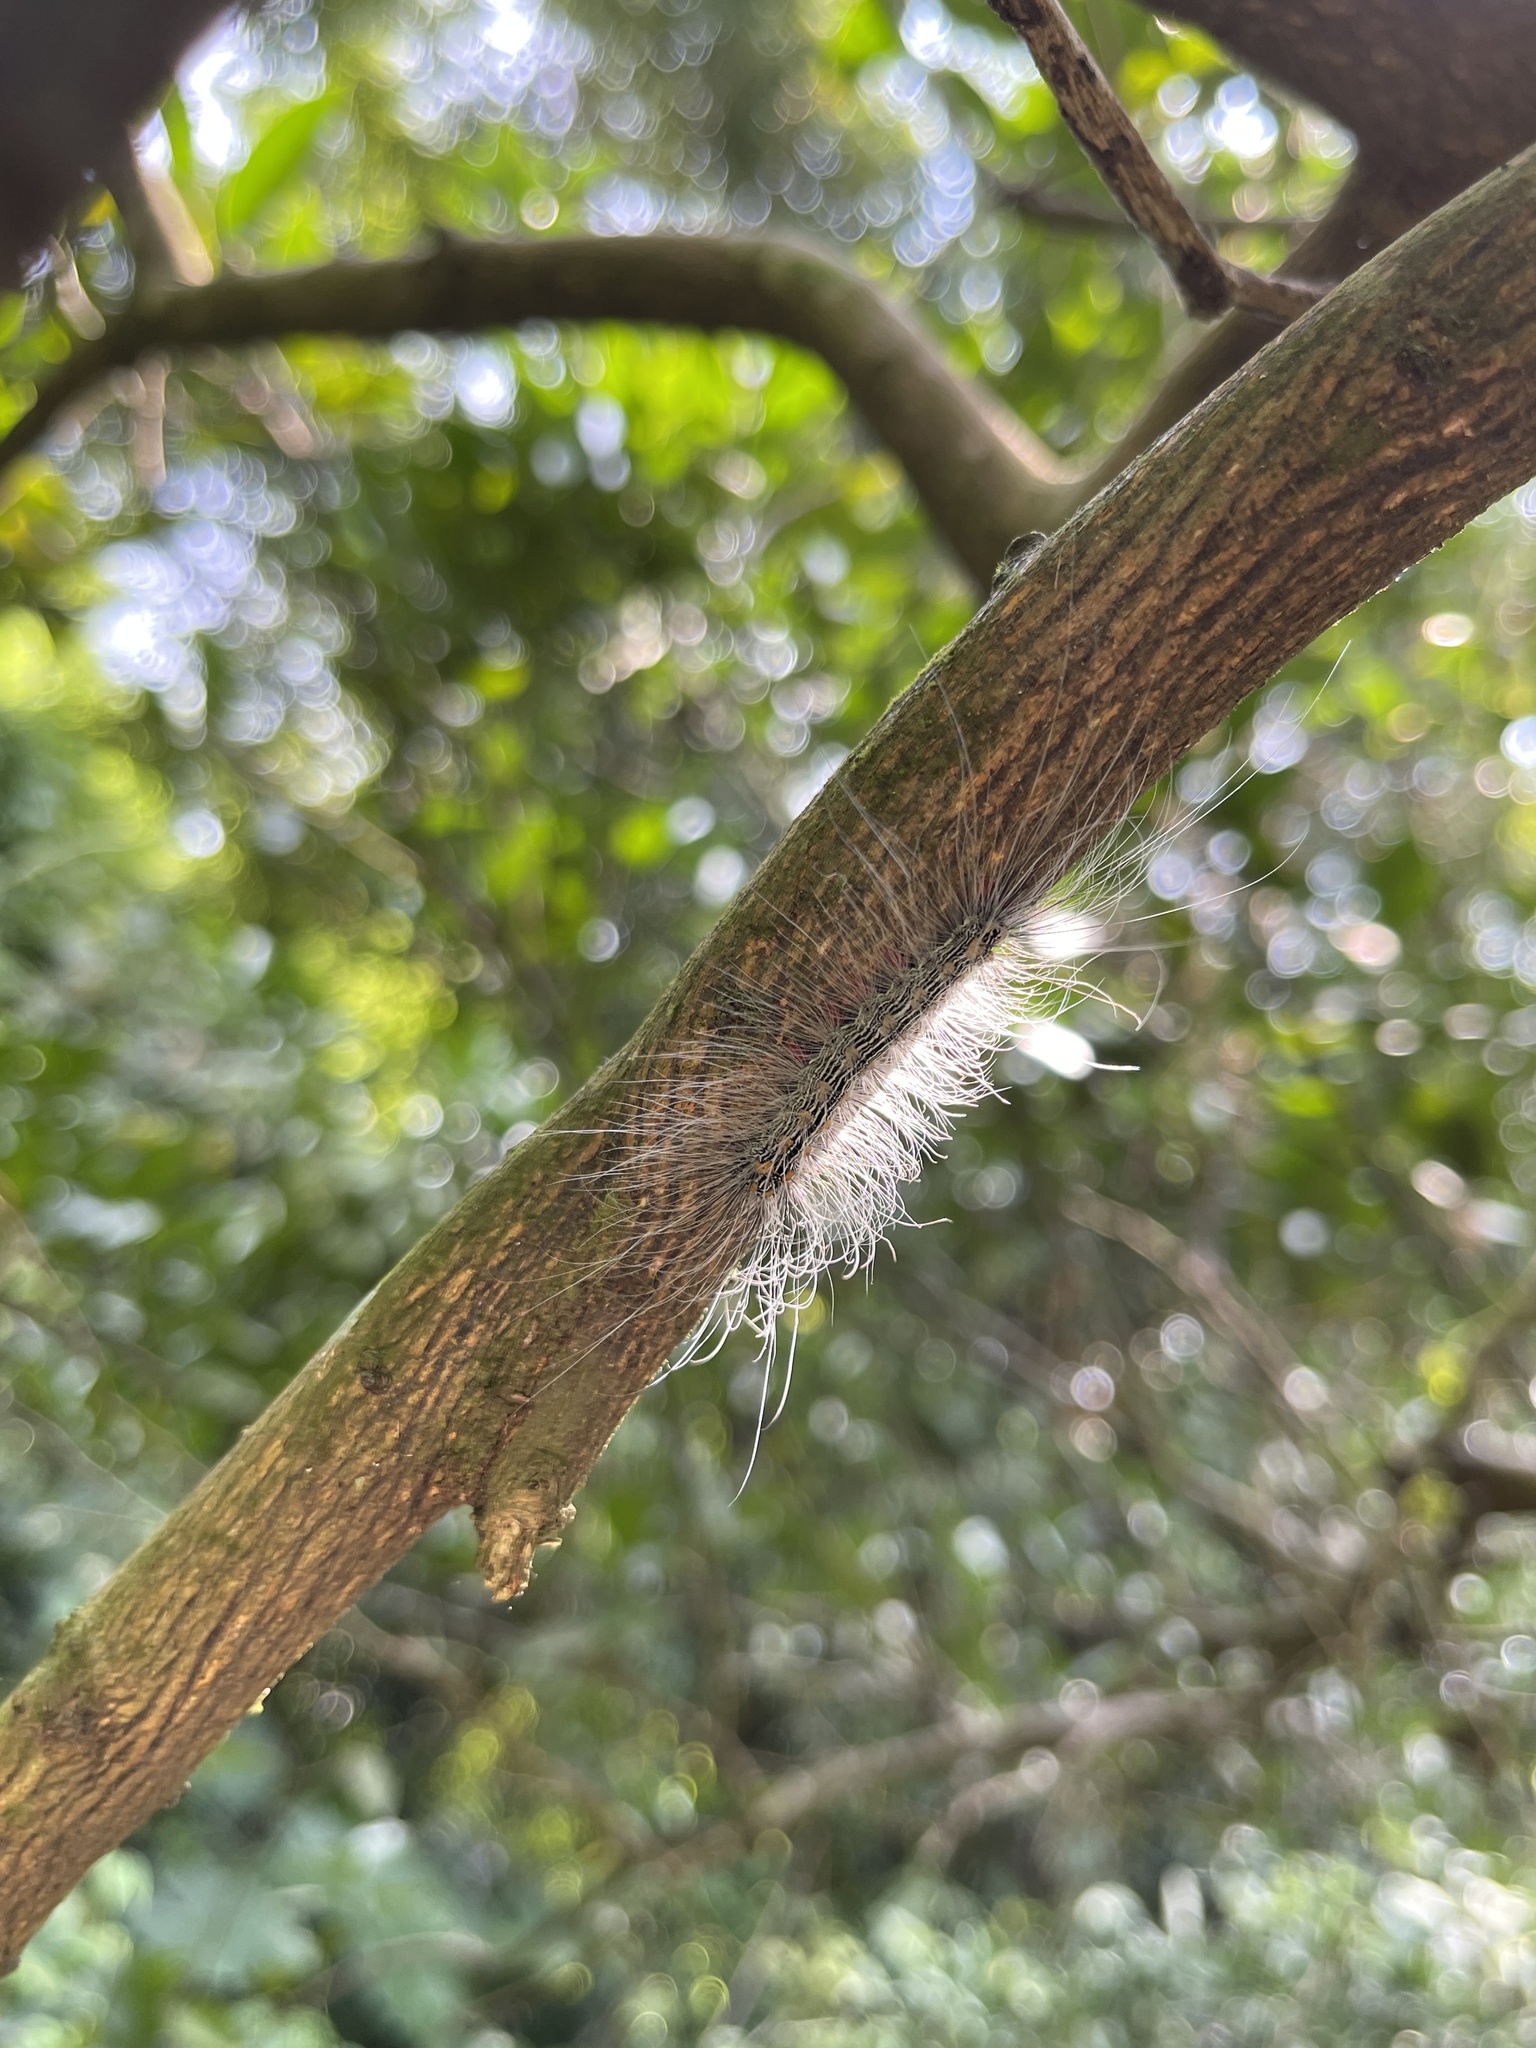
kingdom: Animalia
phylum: Arthropoda
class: Insecta
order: Lepidoptera
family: Erebidae
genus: Chrysaeglia
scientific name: Chrysaeglia magnifica
